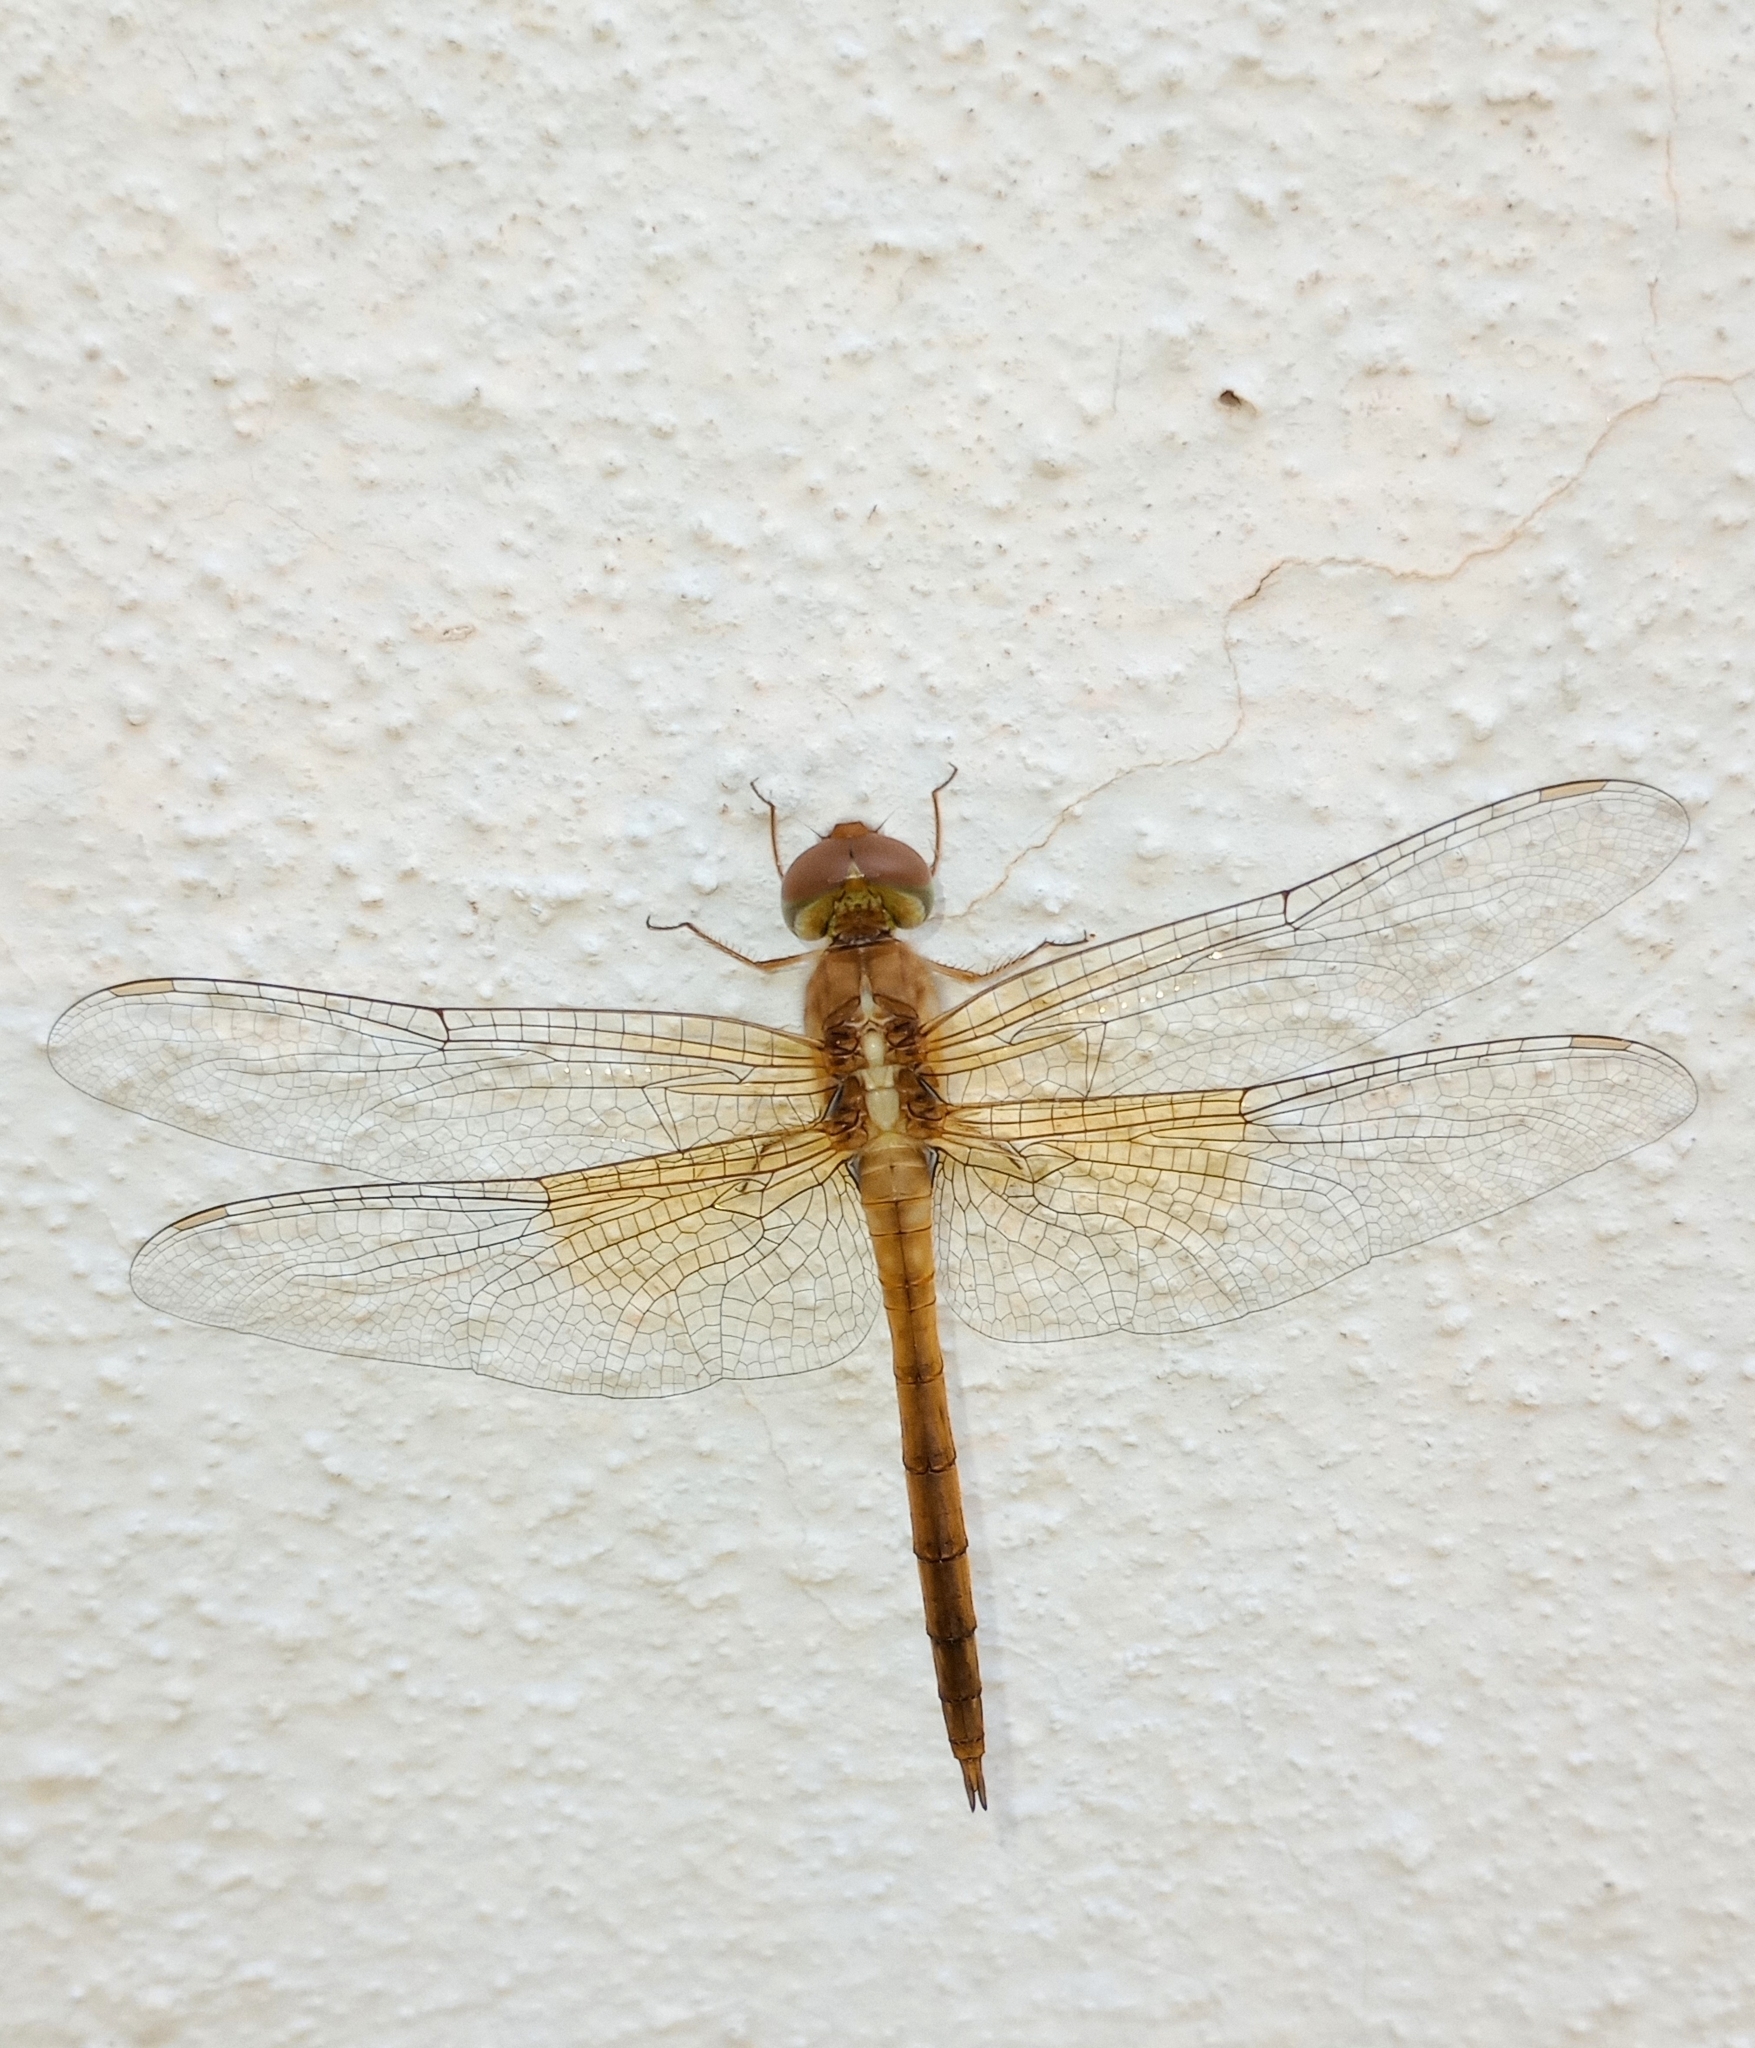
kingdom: Animalia
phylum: Arthropoda
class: Insecta
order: Odonata
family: Libellulidae
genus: Tholymis
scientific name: Tholymis tillarga
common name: Coral-tailed cloud wing
